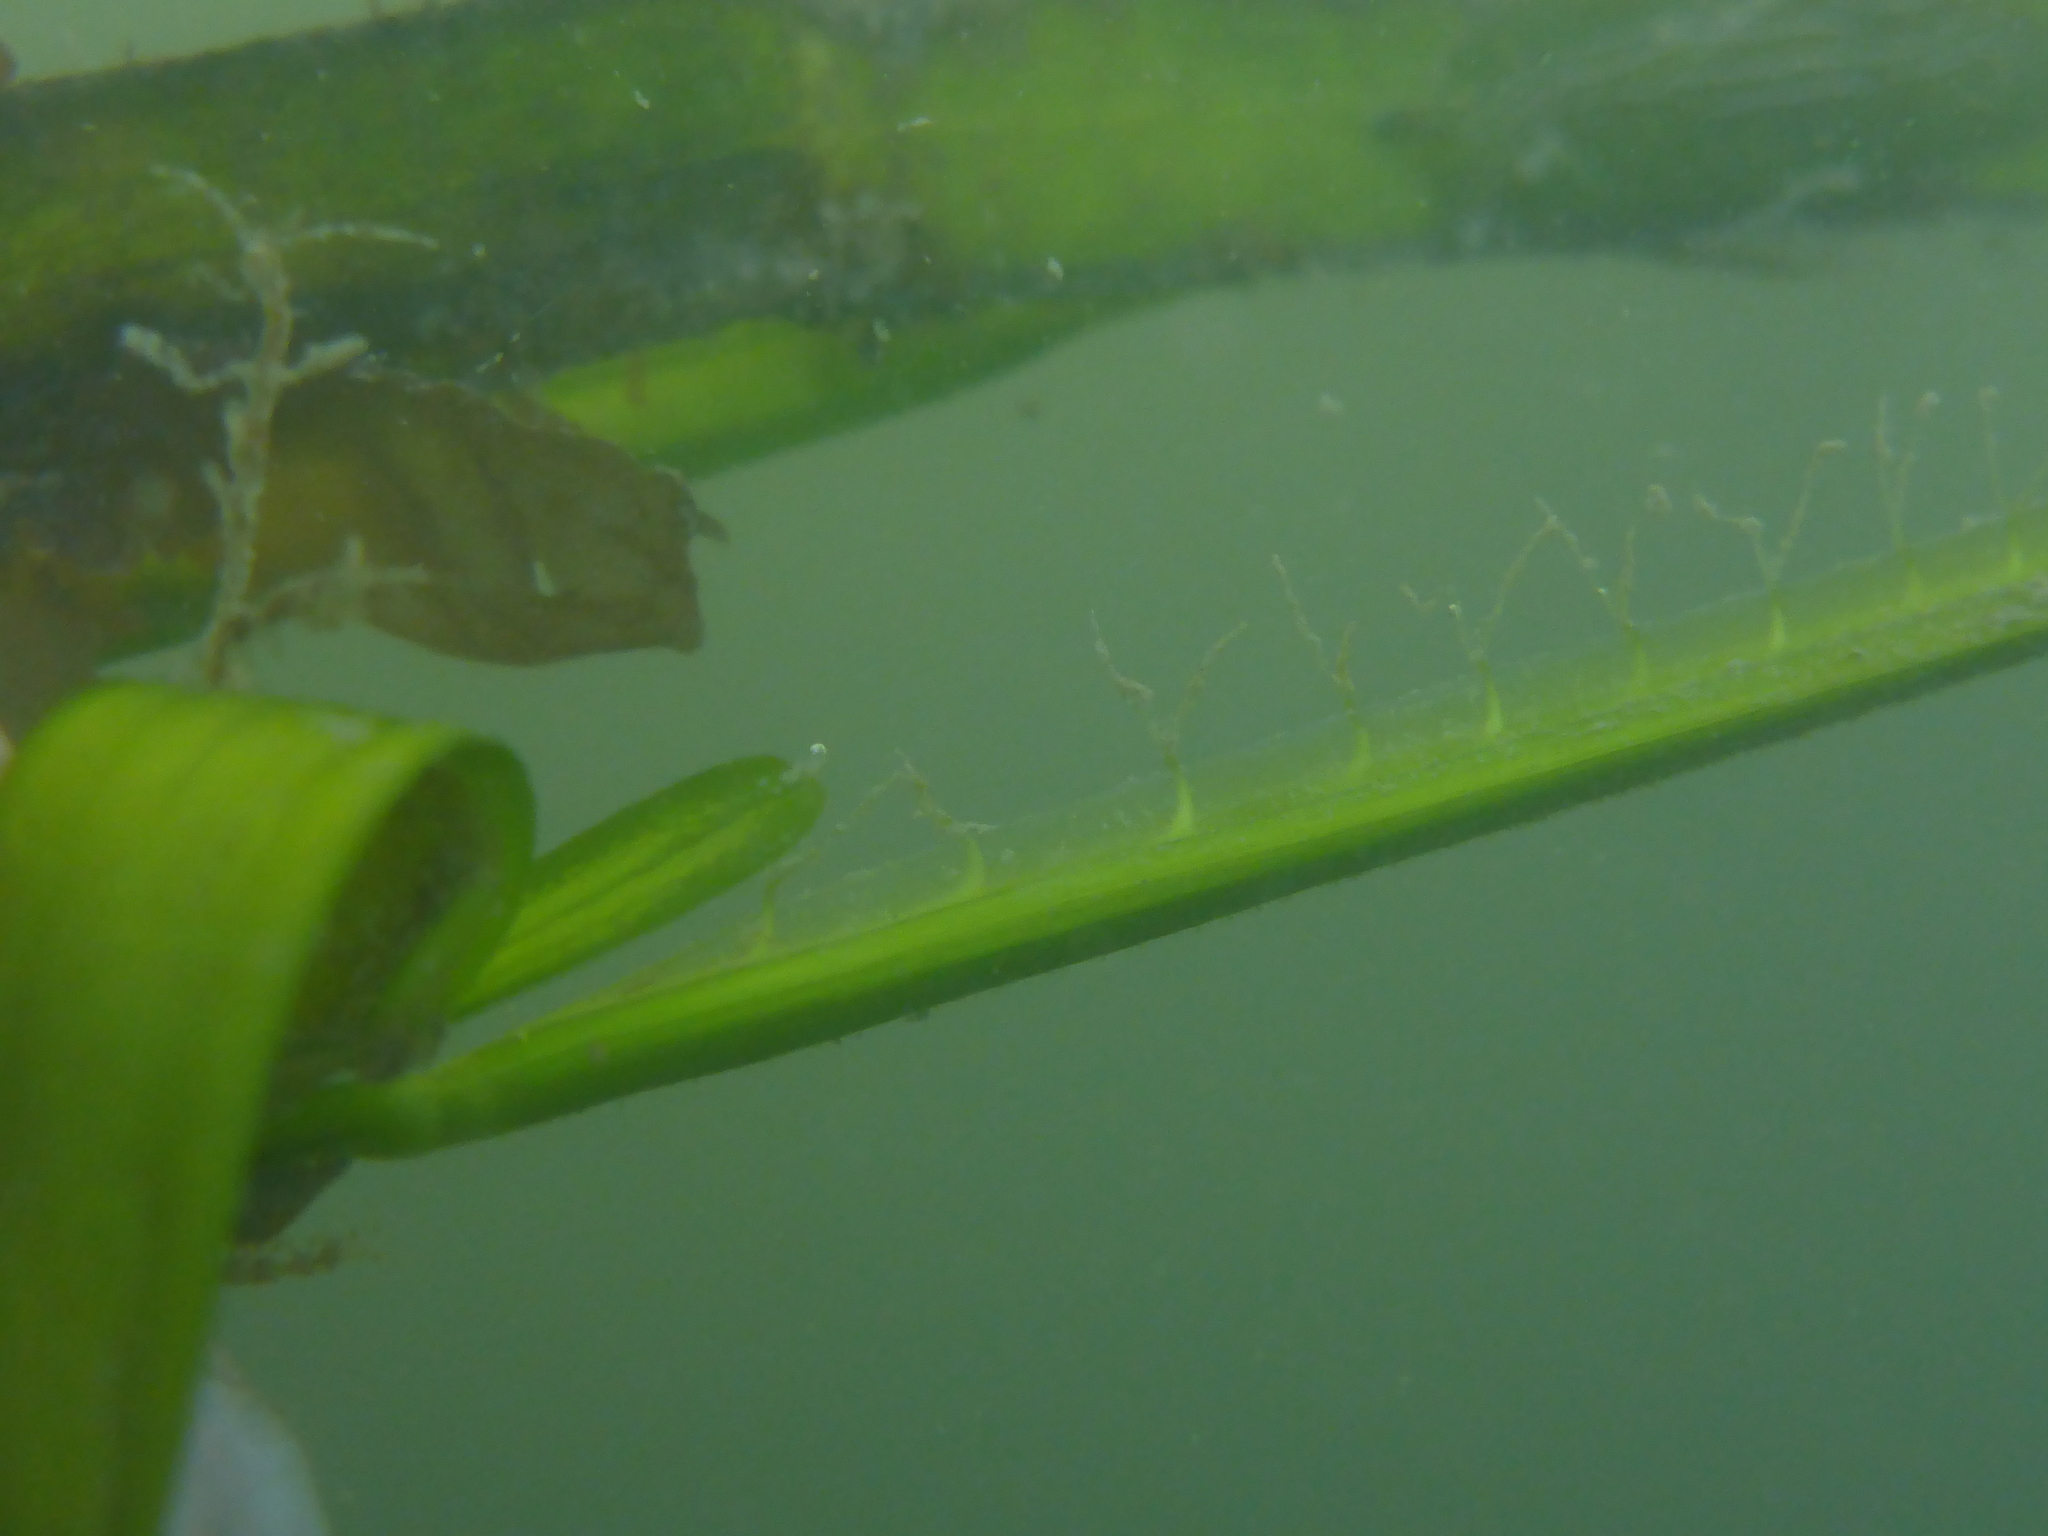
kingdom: Plantae
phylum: Tracheophyta
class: Liliopsida
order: Alismatales
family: Zosteraceae
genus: Zostera
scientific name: Zostera marina
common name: Eelgrass
